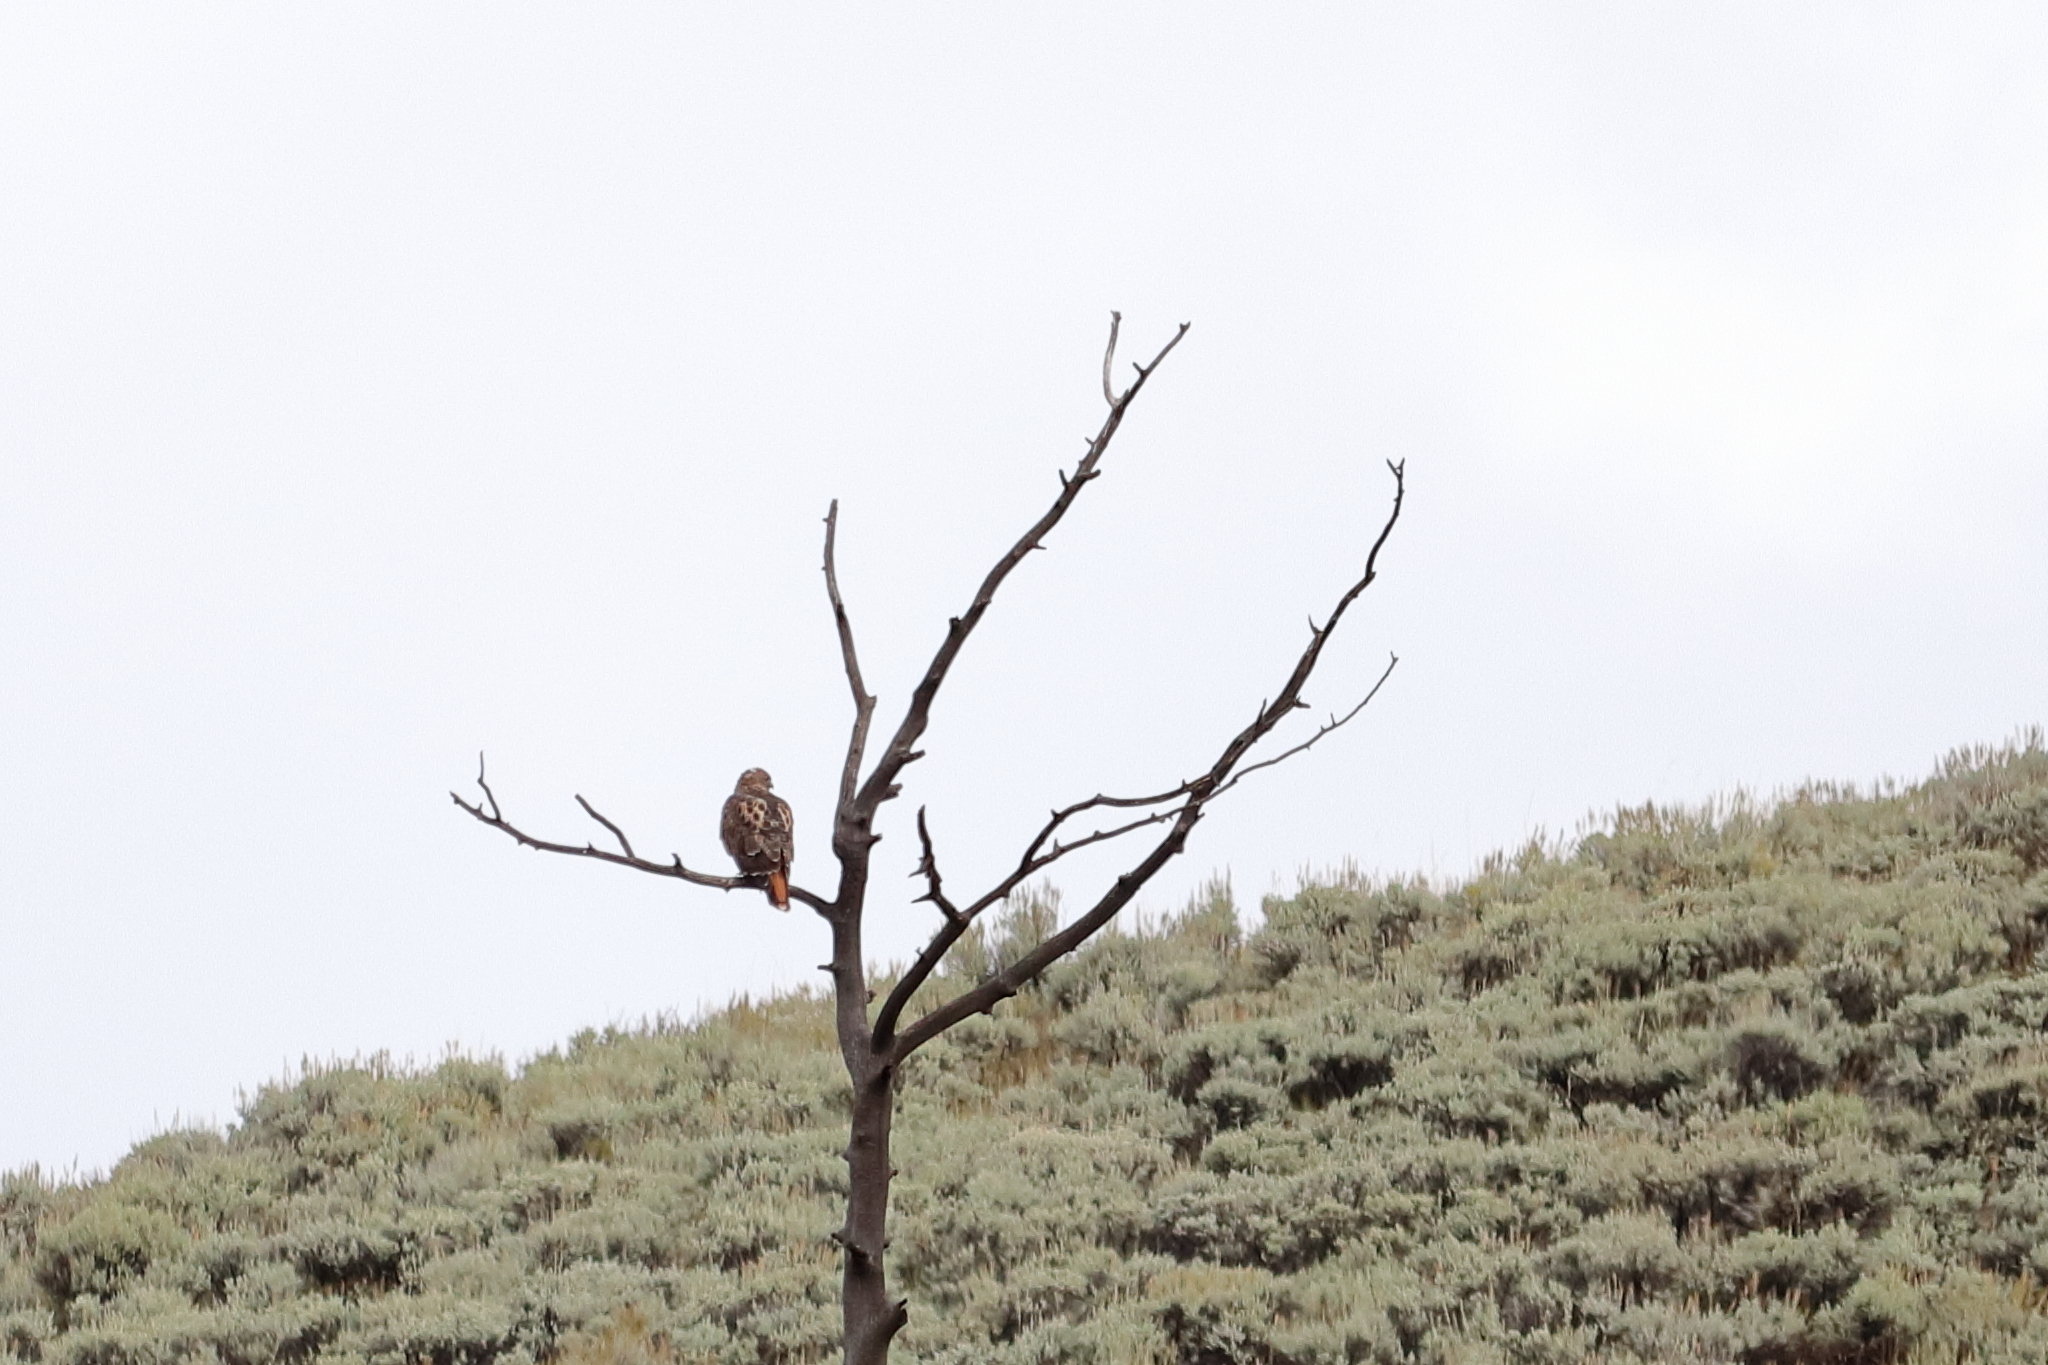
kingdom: Animalia
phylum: Chordata
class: Aves
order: Accipitriformes
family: Accipitridae
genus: Buteo
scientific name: Buteo jamaicensis
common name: Red-tailed hawk
